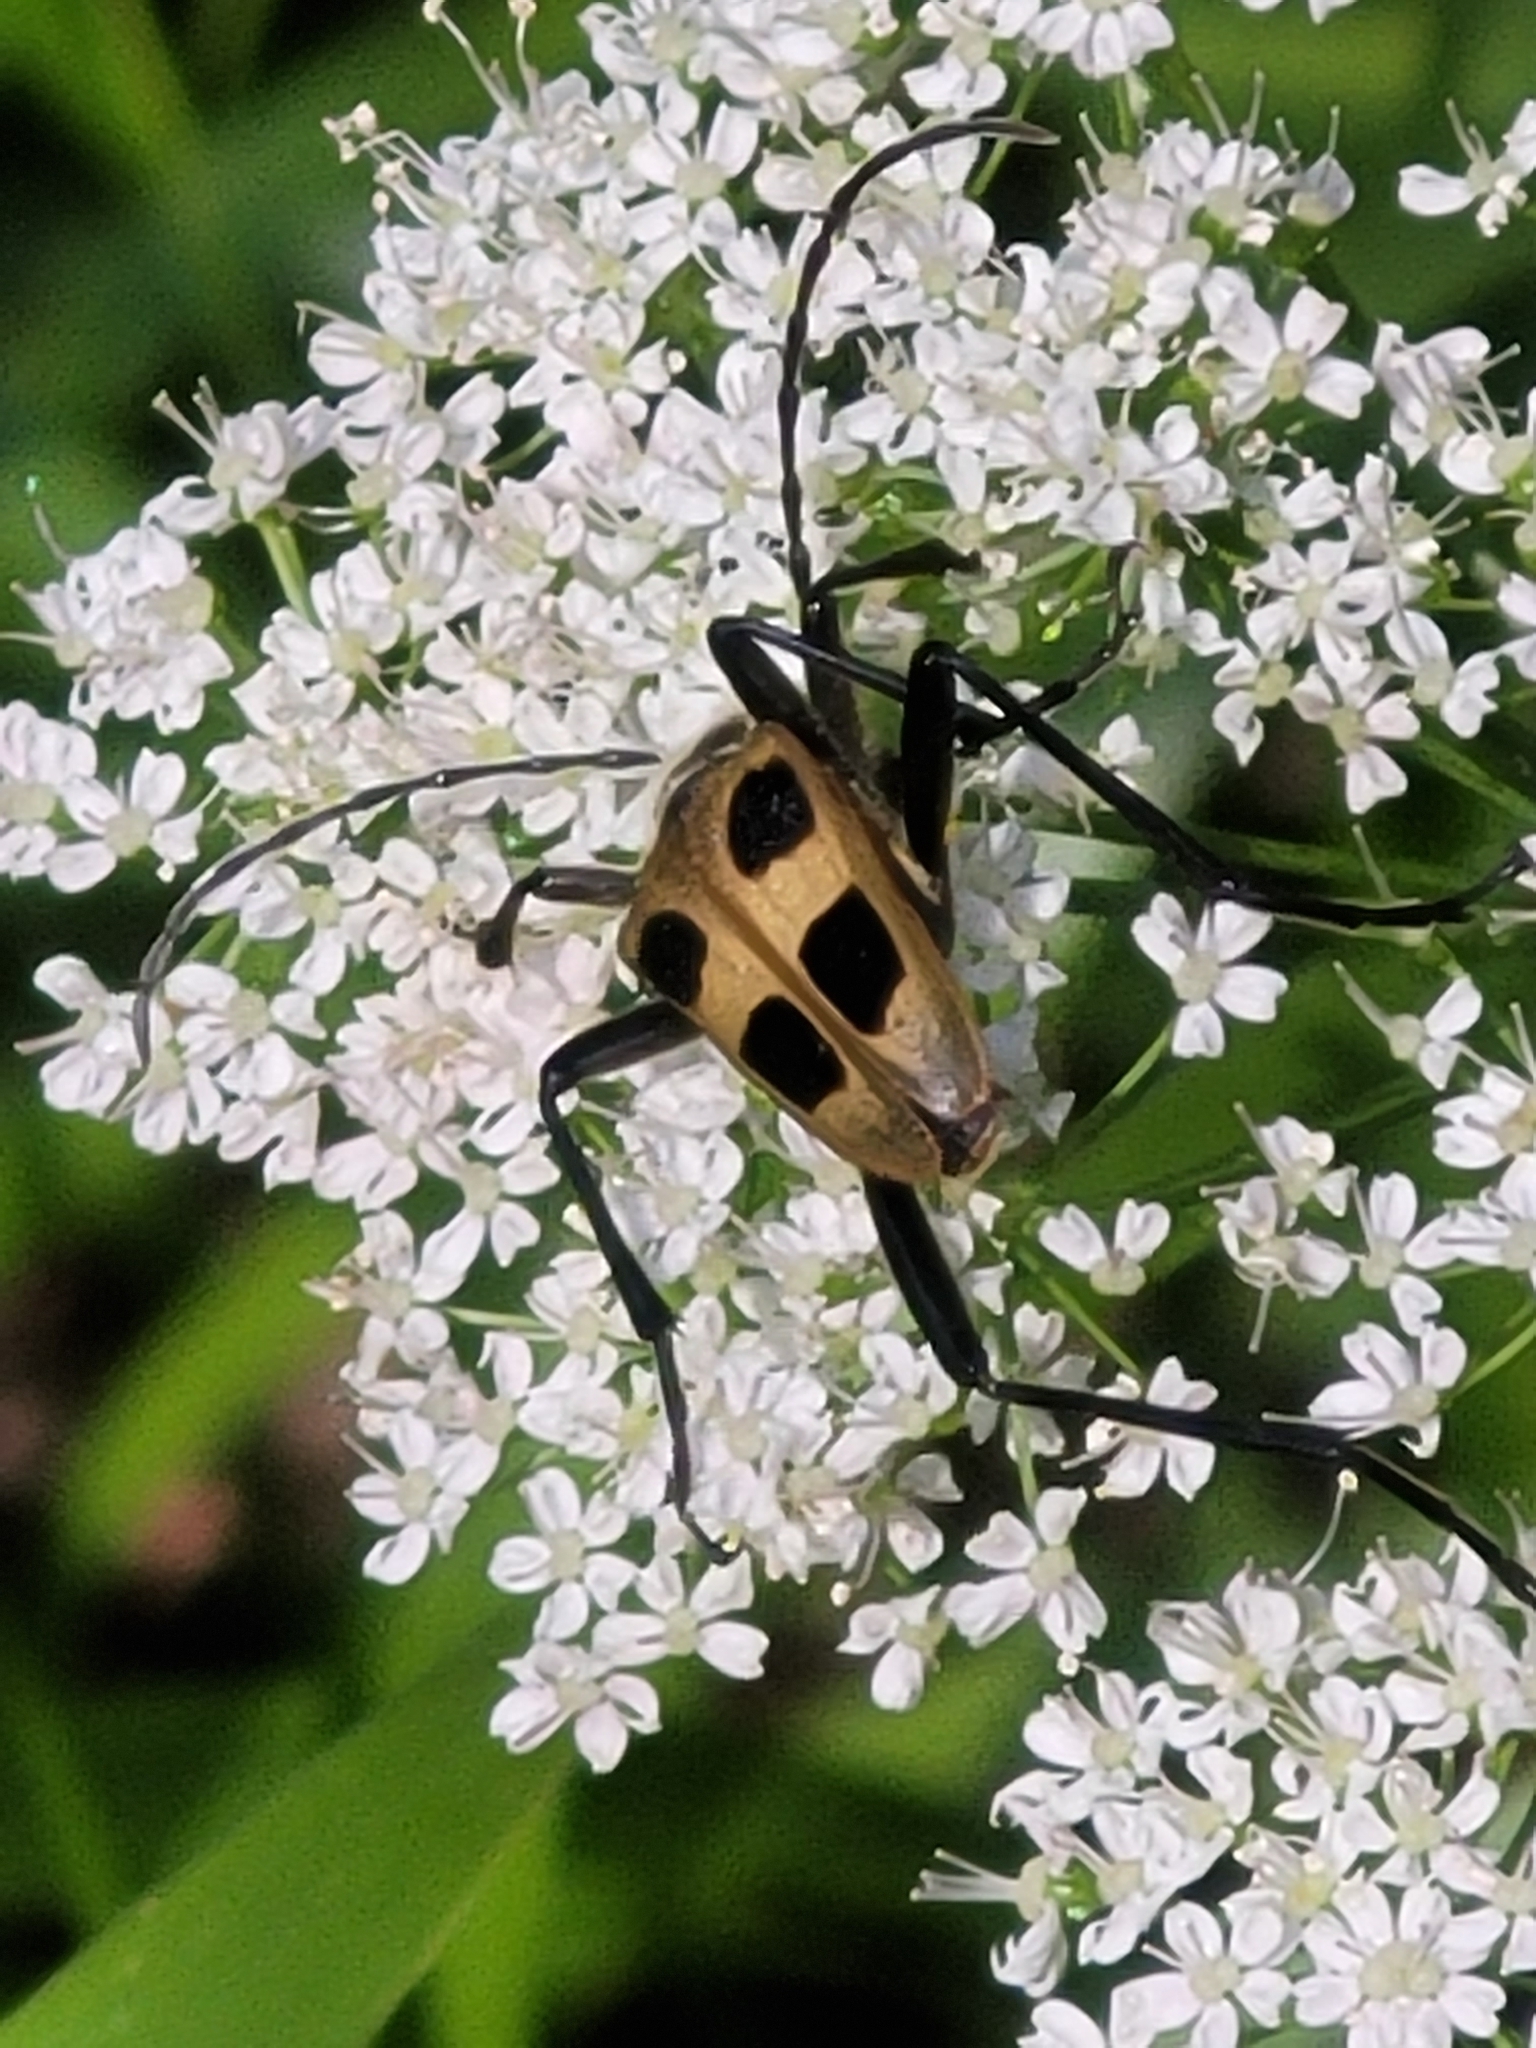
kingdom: Animalia
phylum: Arthropoda
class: Insecta
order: Coleoptera
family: Cerambycidae
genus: Pachyta
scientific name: Pachyta quadrimaculata
